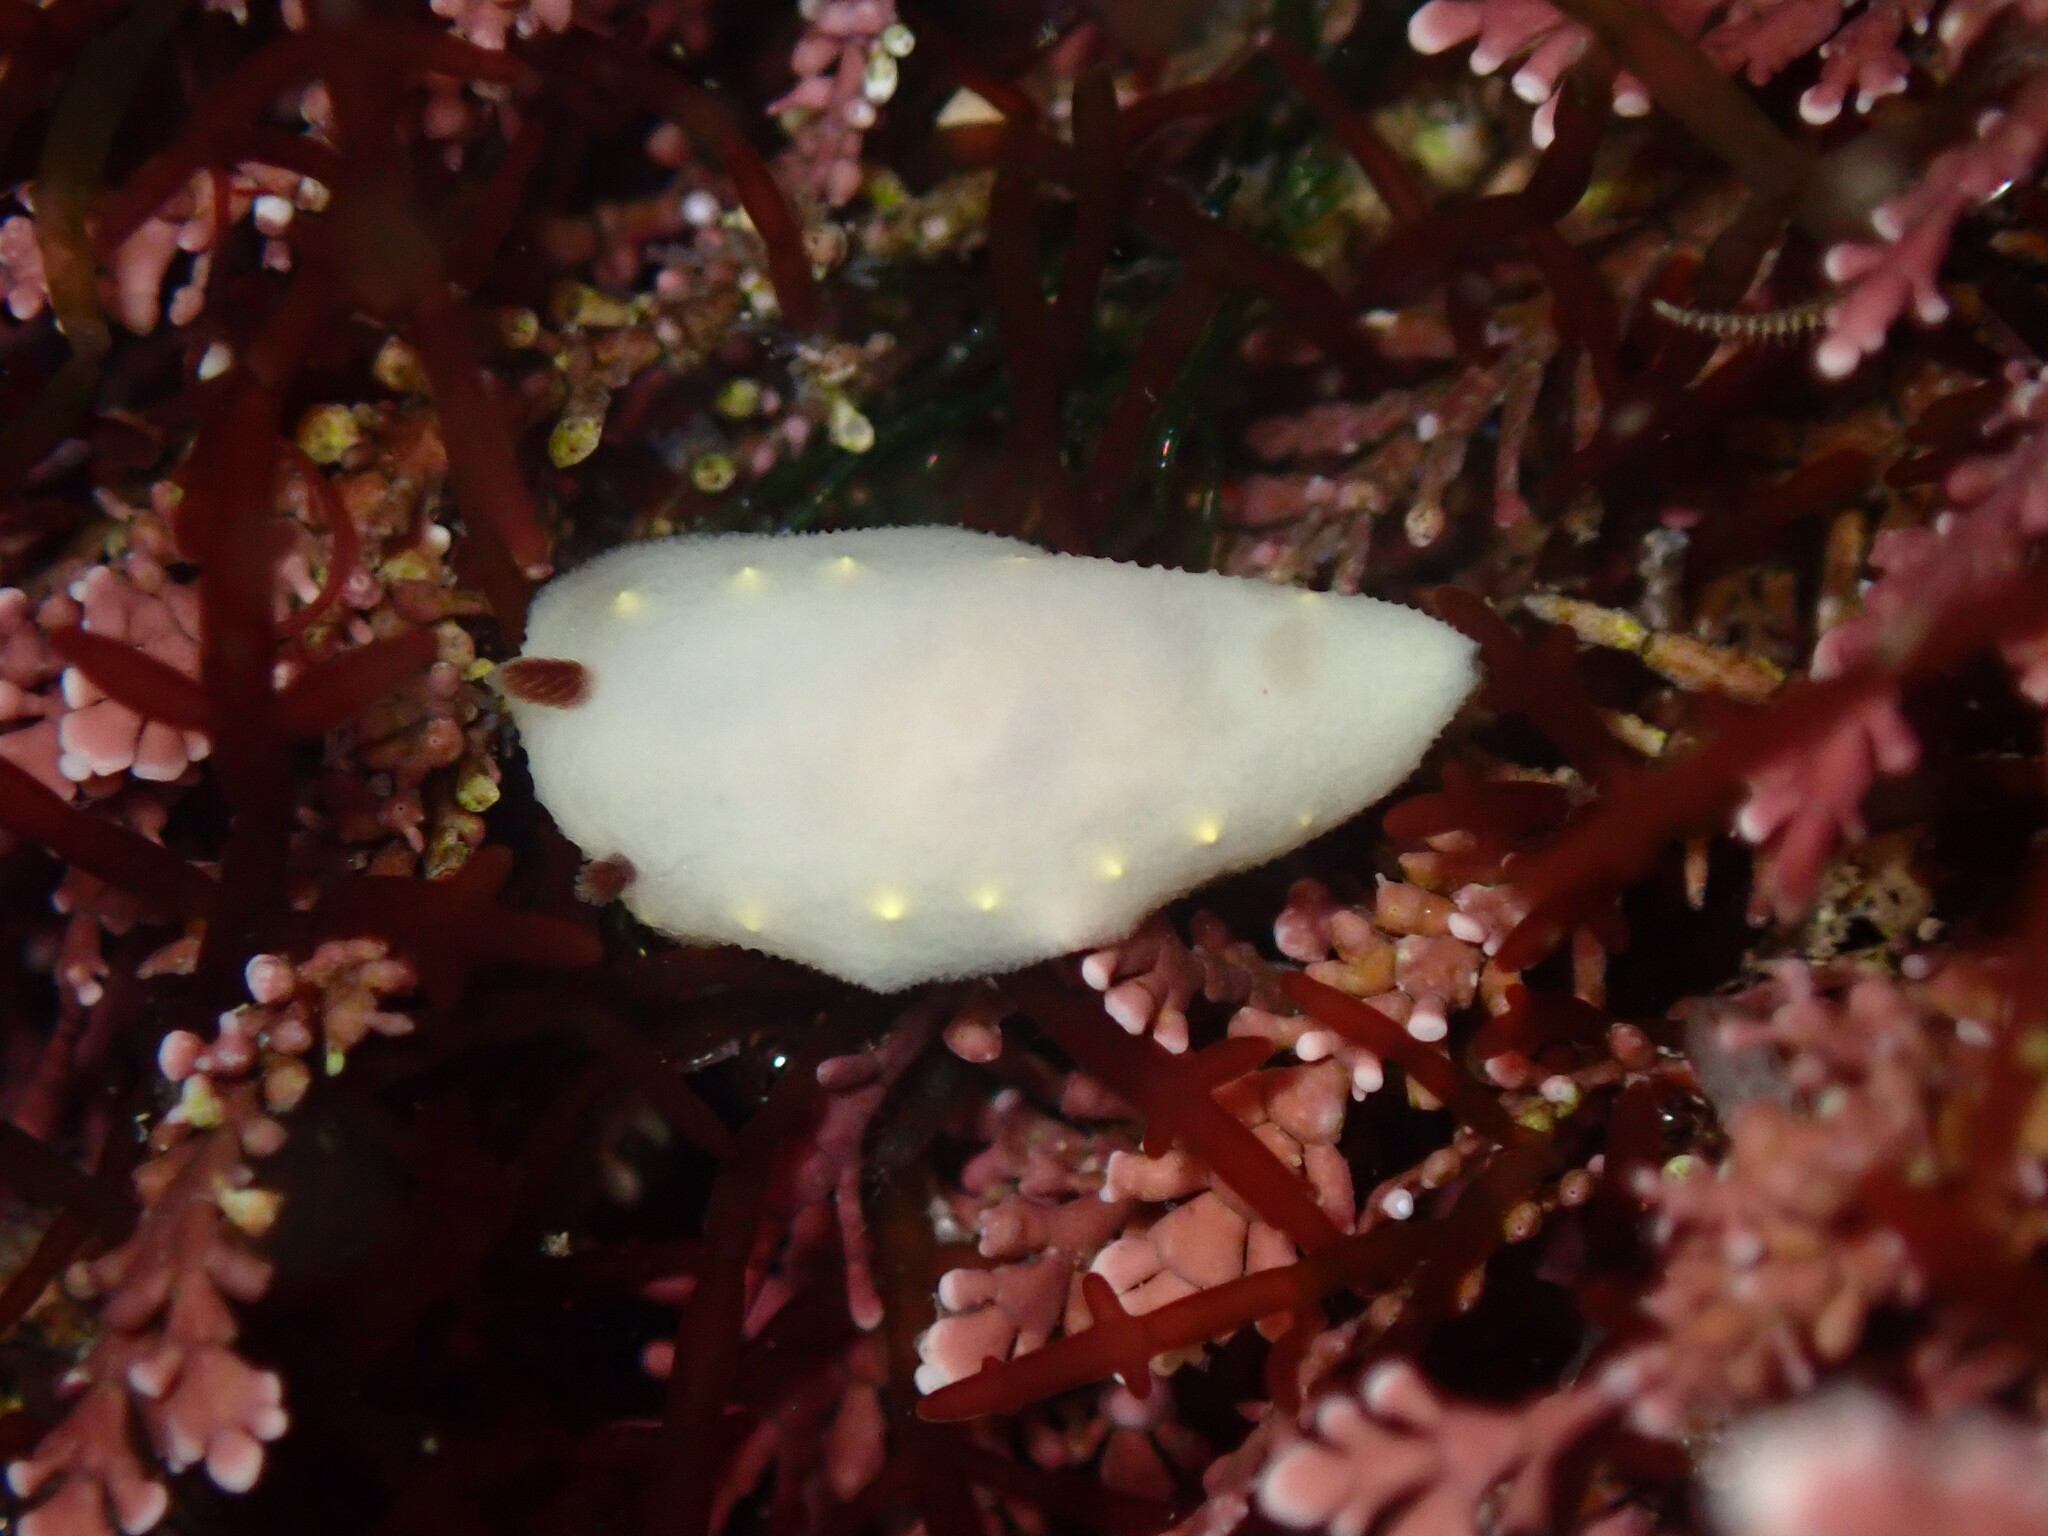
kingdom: Animalia
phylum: Mollusca
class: Gastropoda
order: Nudibranchia
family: Cadlinidae
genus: Cadlina
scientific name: Cadlina flavomaculata
